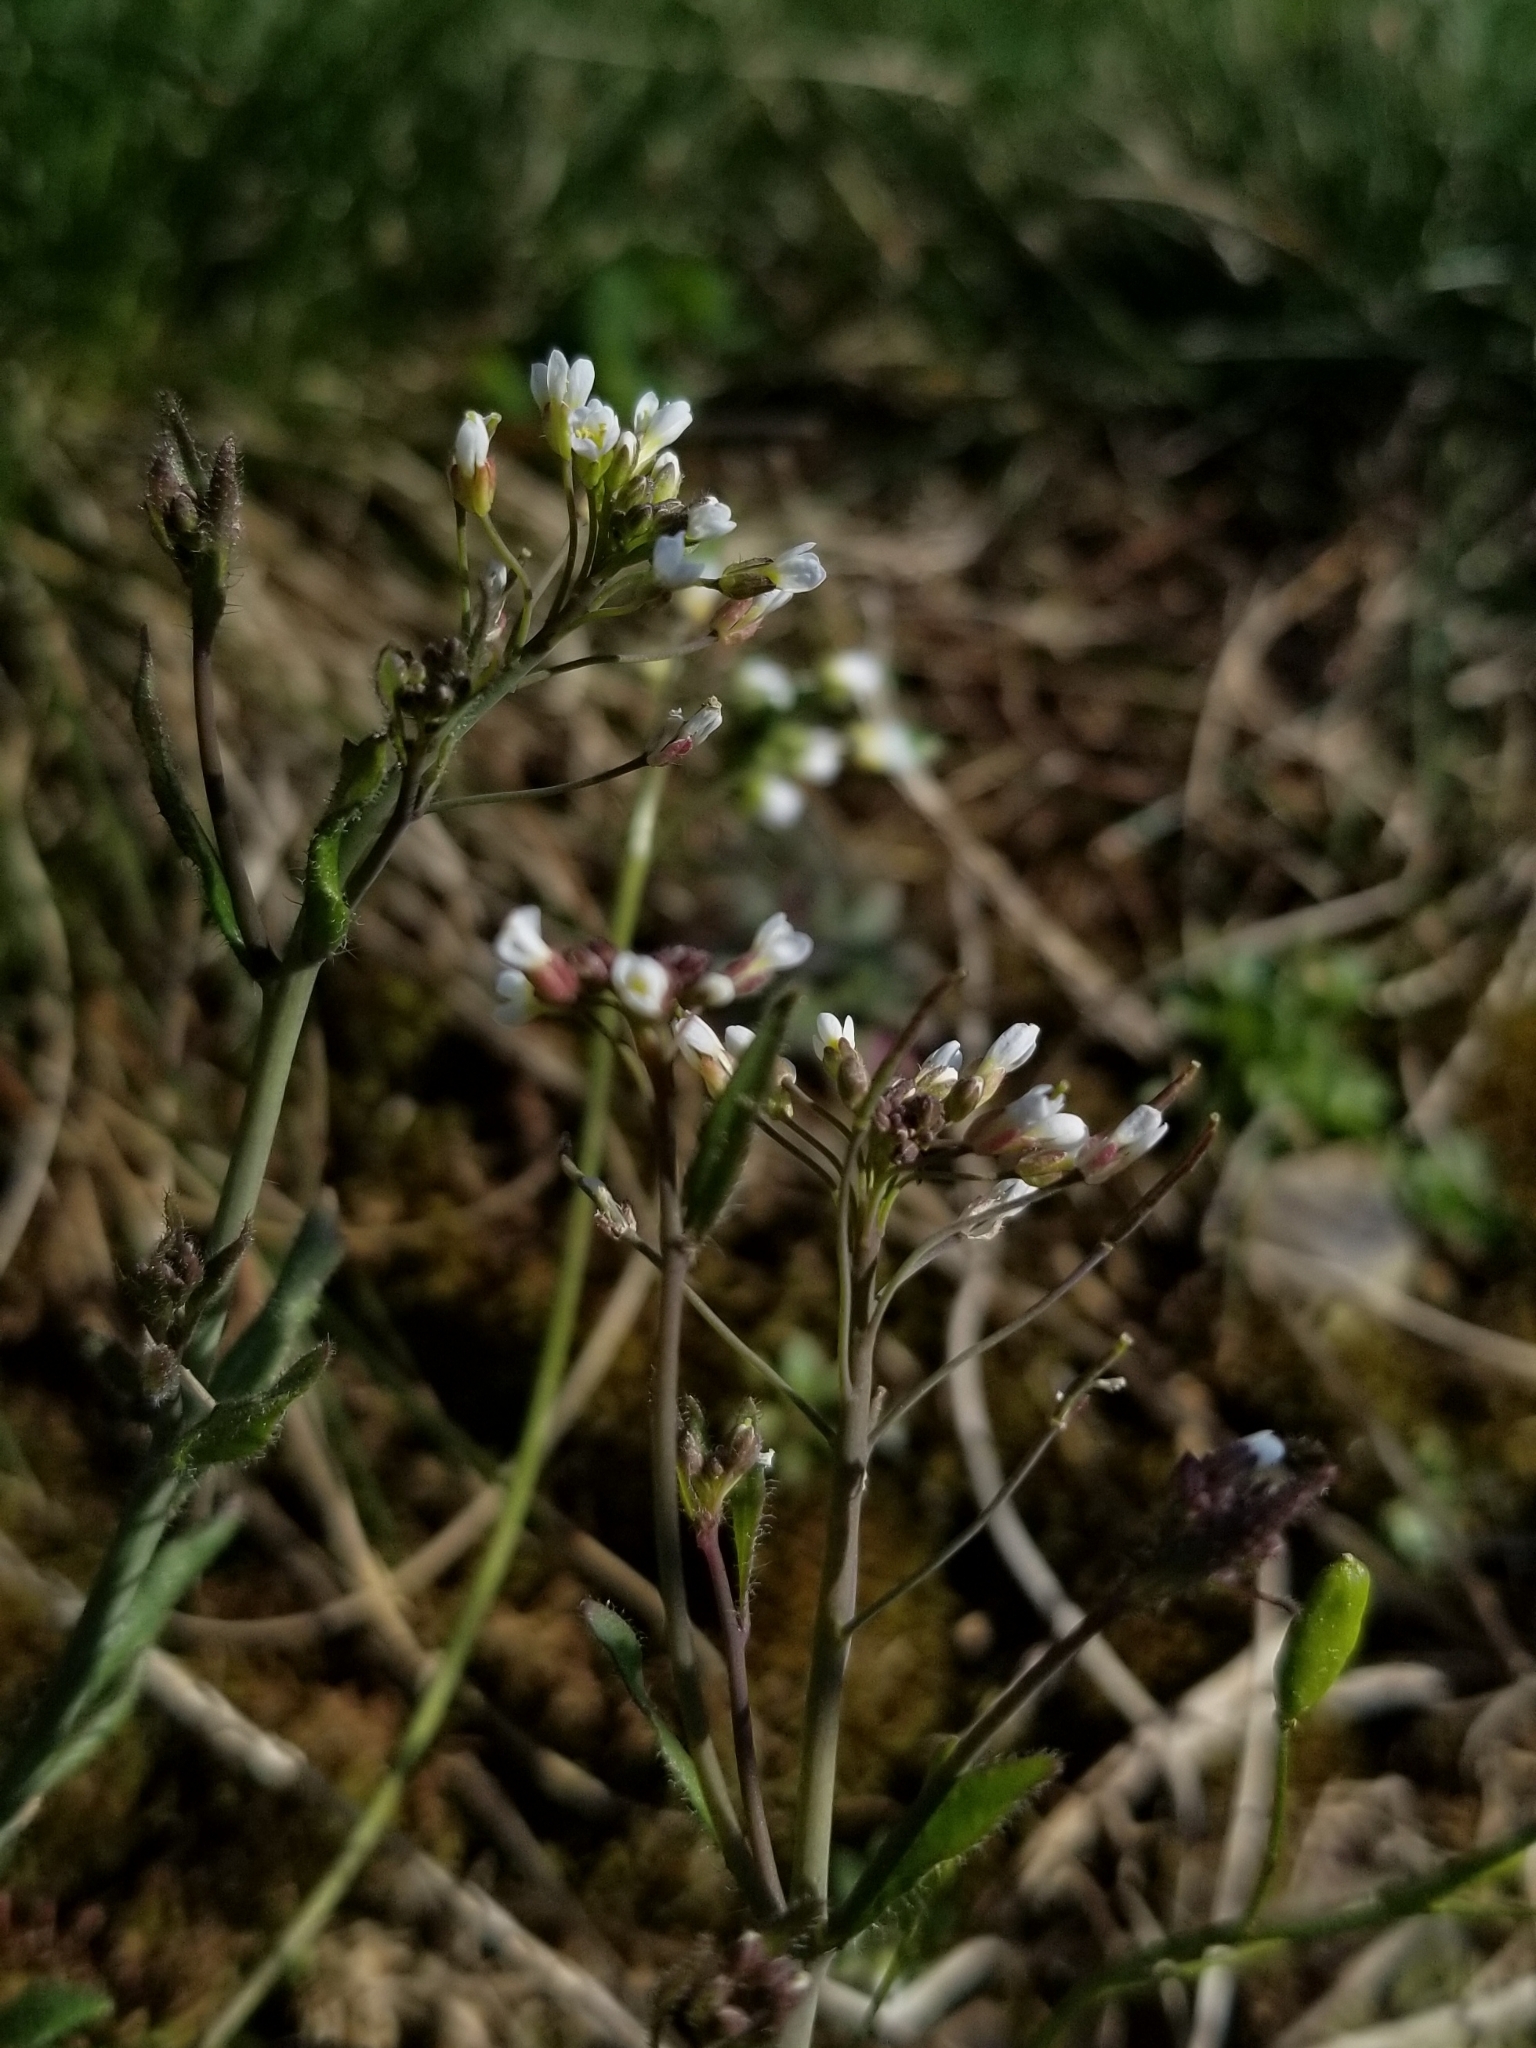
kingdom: Plantae
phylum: Tracheophyta
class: Magnoliopsida
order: Brassicales
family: Brassicaceae
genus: Arabidopsis
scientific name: Arabidopsis thaliana
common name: Thale cress
